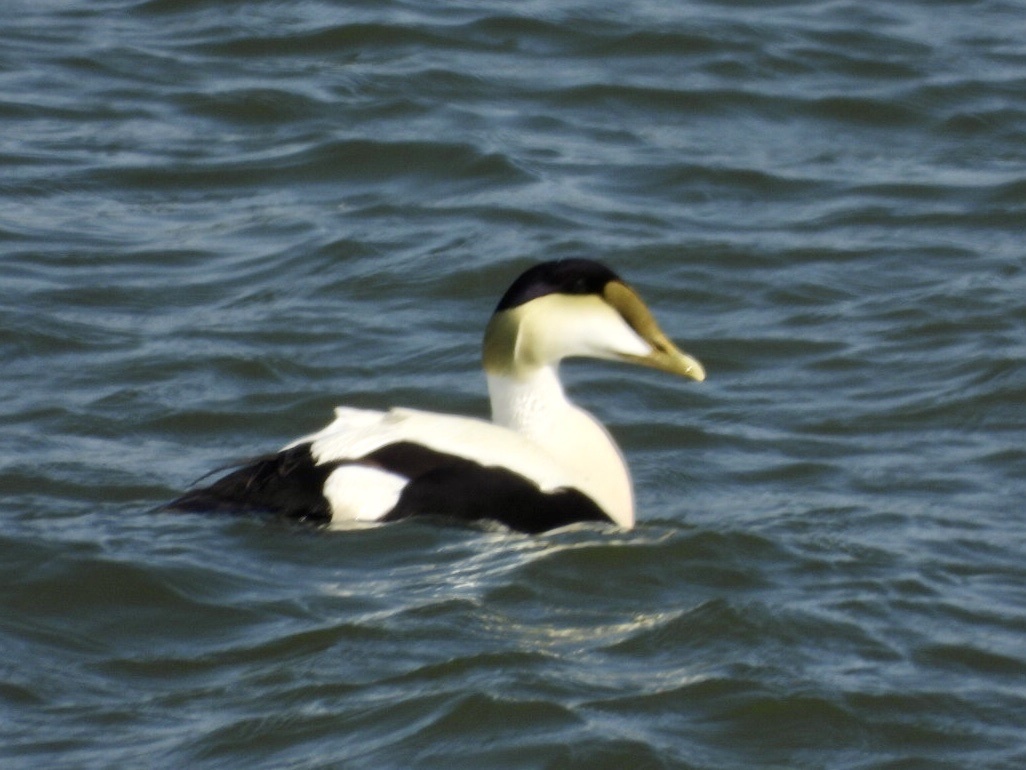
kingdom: Animalia
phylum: Chordata
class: Aves
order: Anseriformes
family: Anatidae
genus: Somateria
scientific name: Somateria mollissima
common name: Common eider
